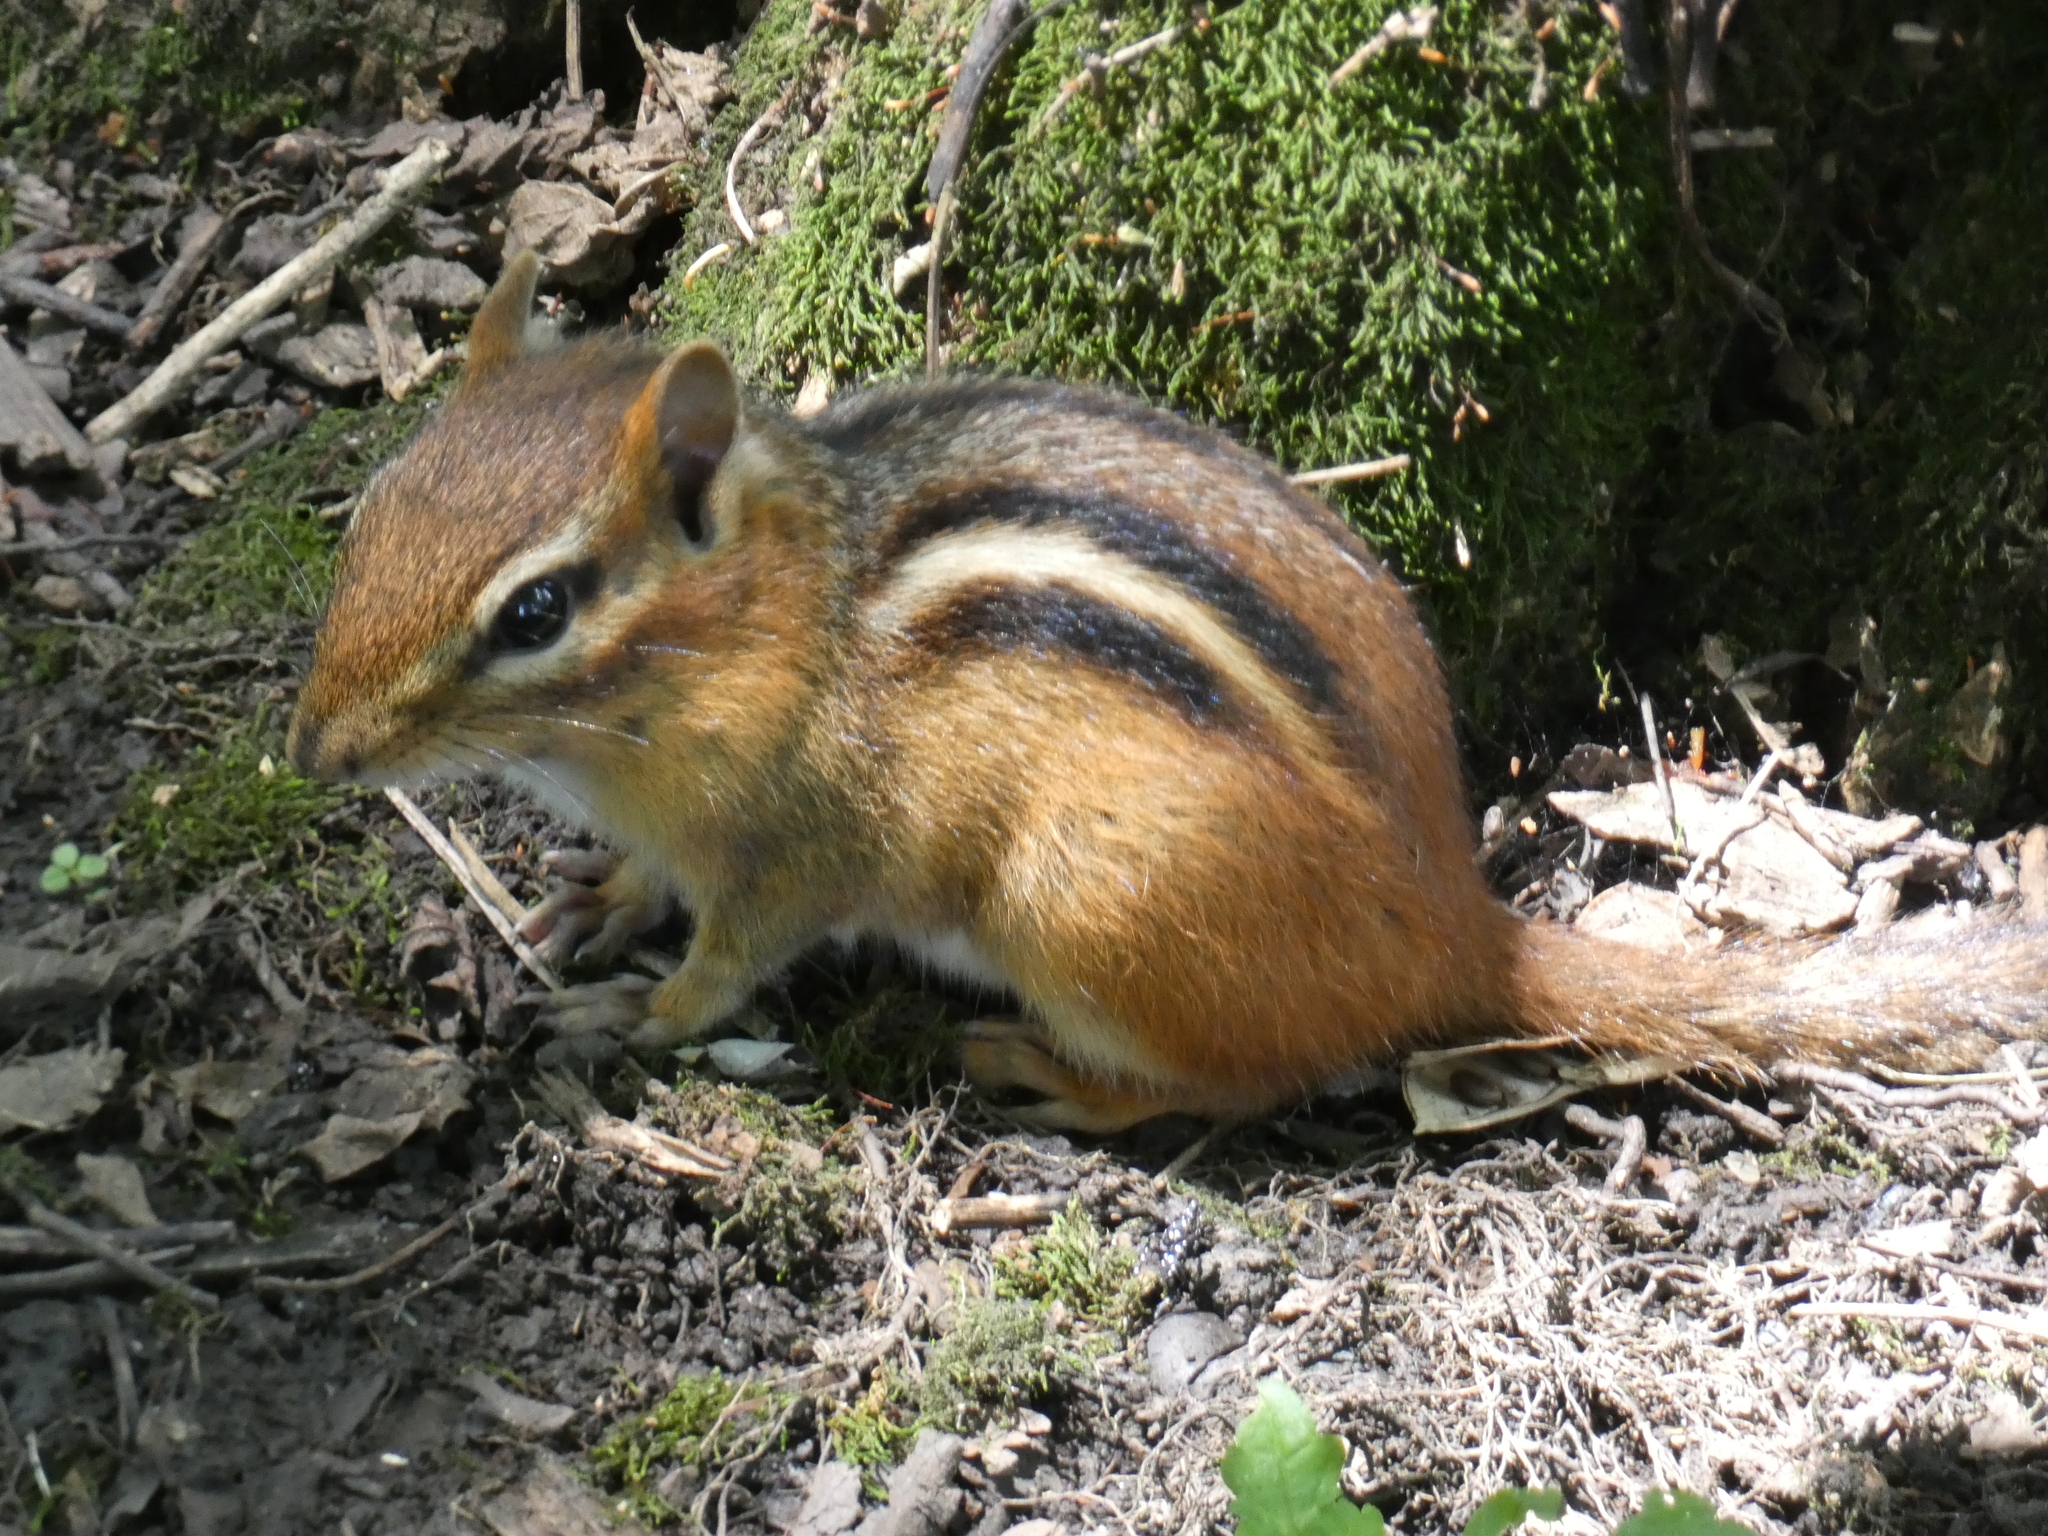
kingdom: Animalia
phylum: Chordata
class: Mammalia
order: Rodentia
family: Sciuridae
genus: Tamias
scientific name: Tamias striatus
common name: Eastern chipmunk
